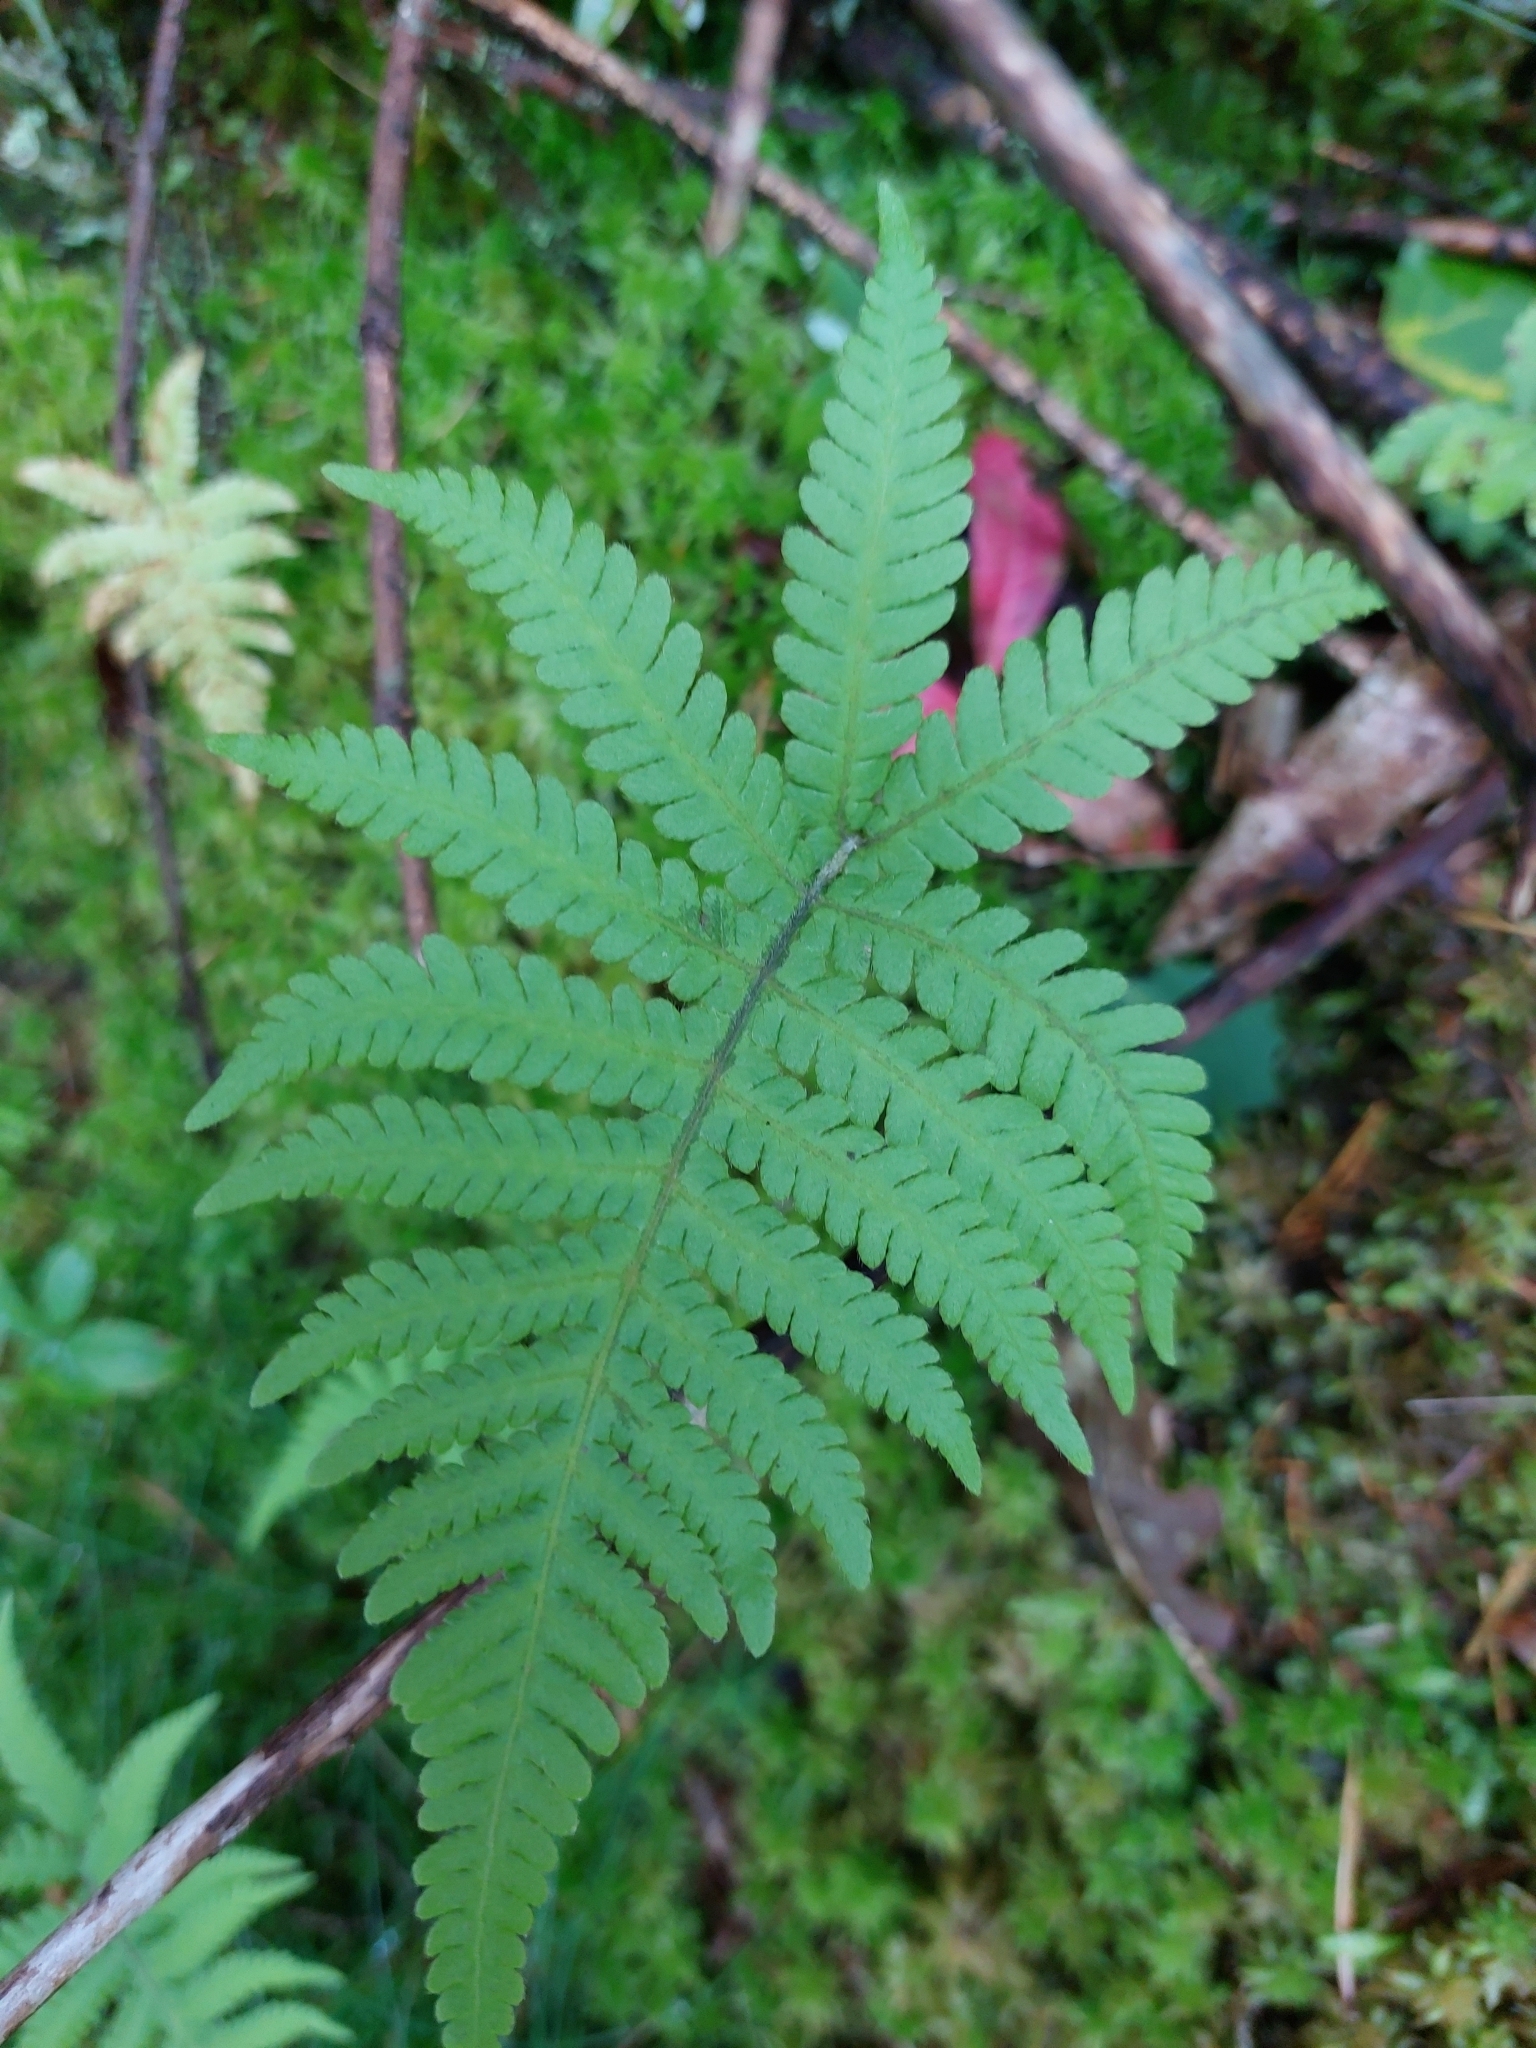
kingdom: Plantae
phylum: Tracheophyta
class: Polypodiopsida
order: Polypodiales
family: Thelypteridaceae
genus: Phegopteris
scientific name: Phegopteris connectilis
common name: Beech fern
